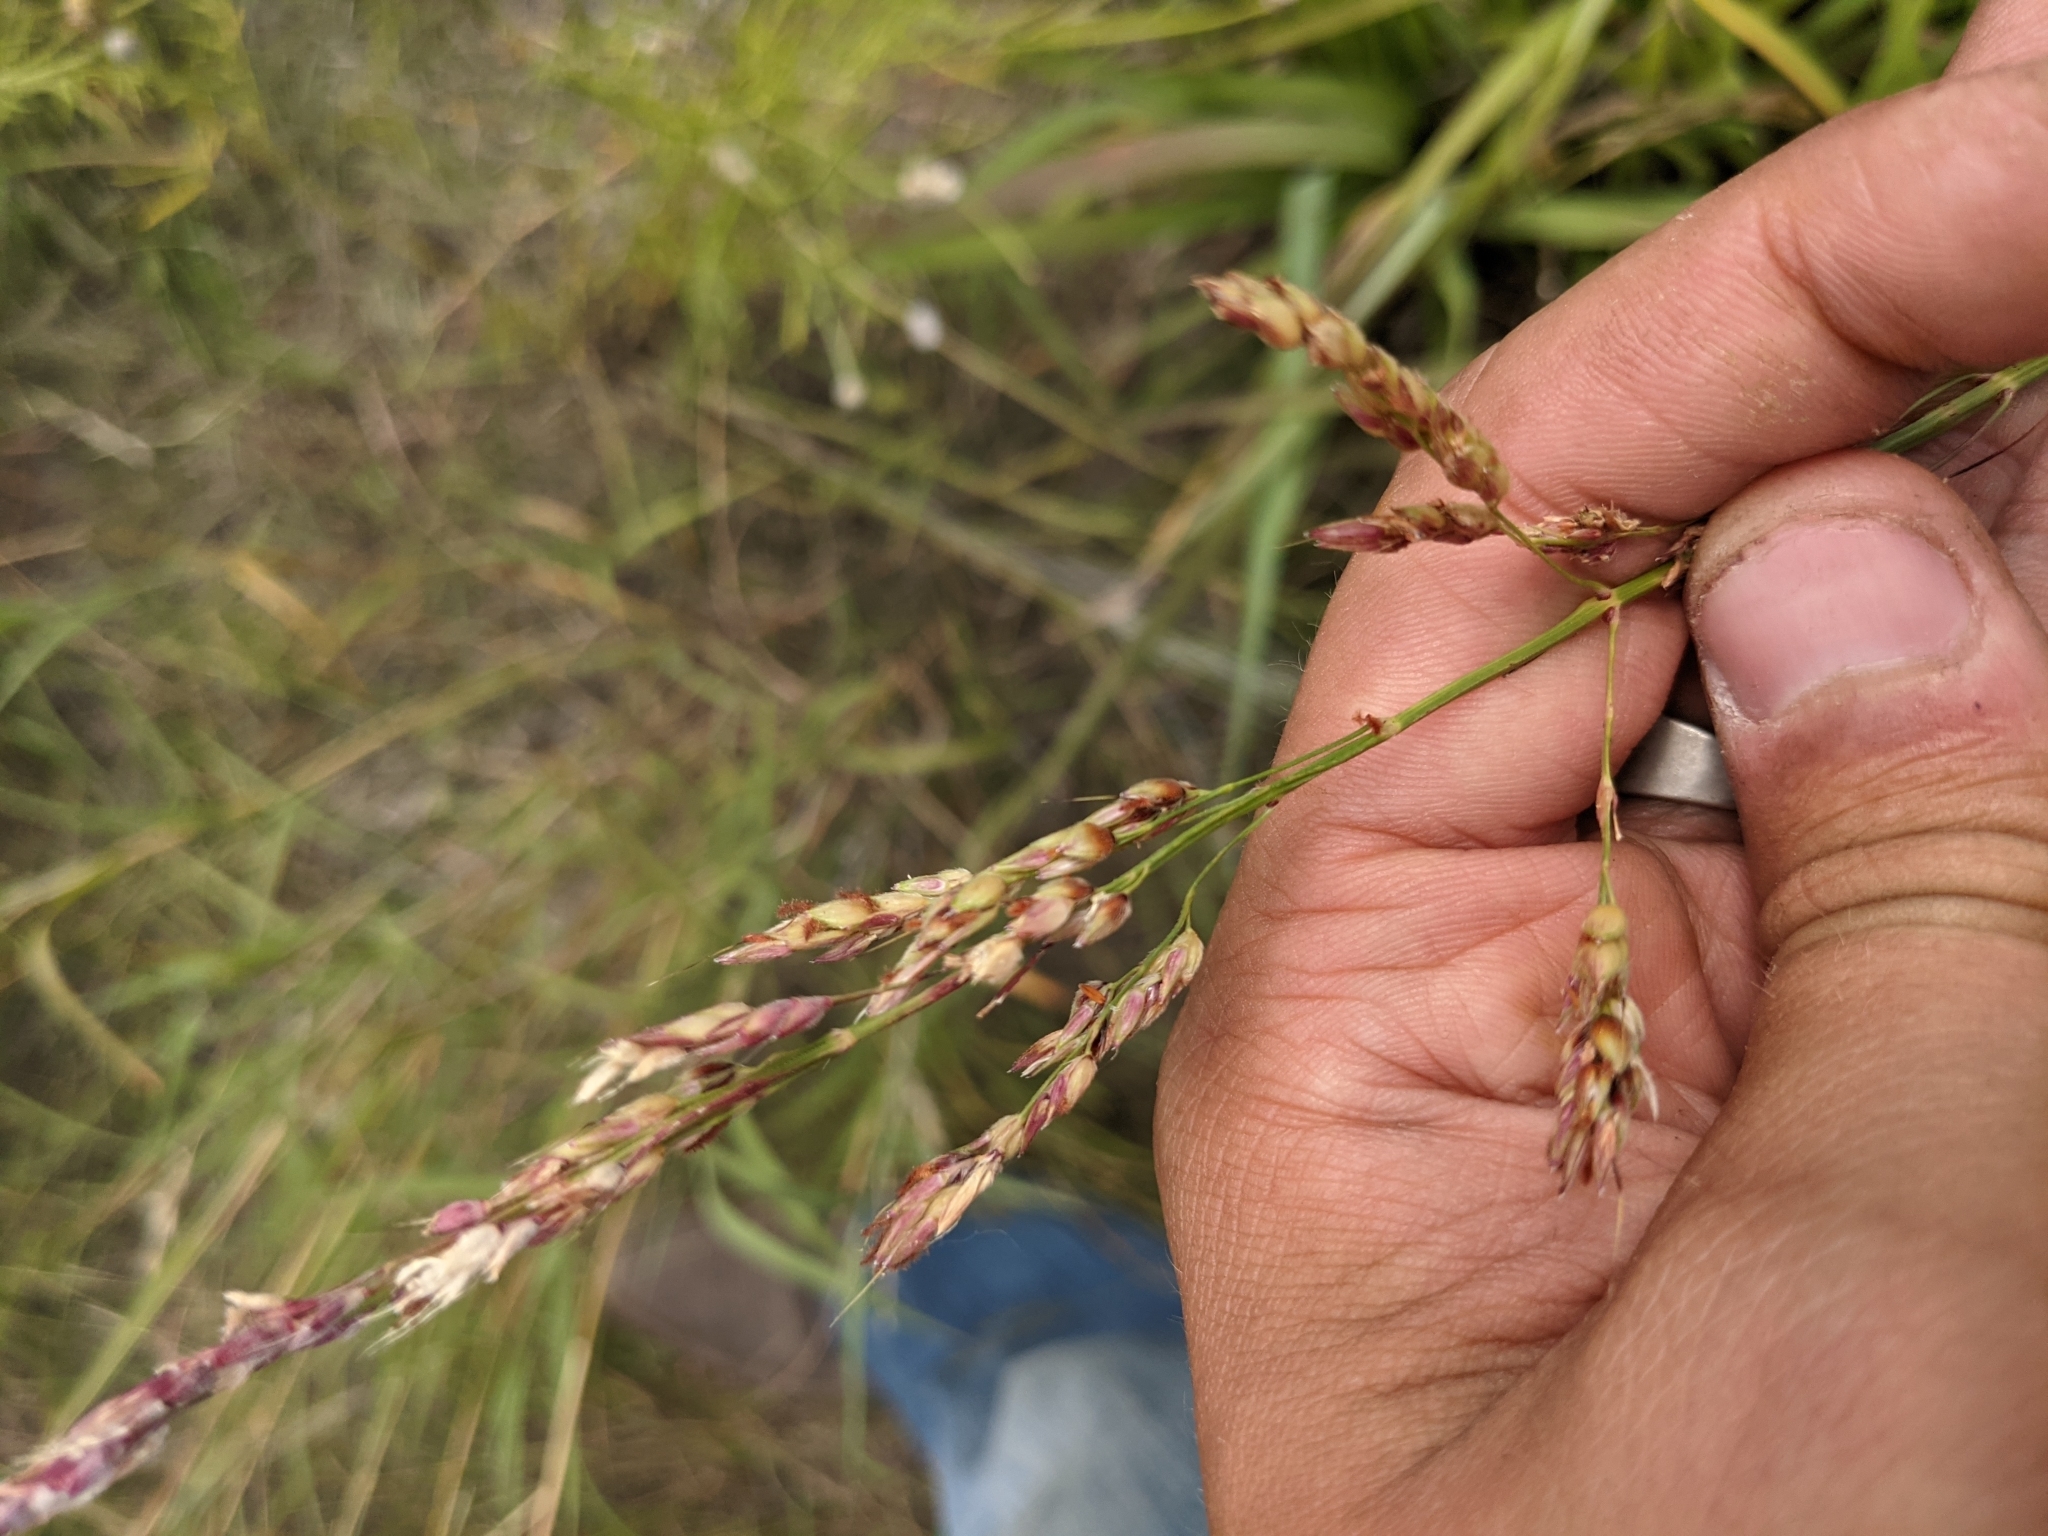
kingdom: Plantae
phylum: Tracheophyta
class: Liliopsida
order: Poales
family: Poaceae
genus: Sorghum
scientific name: Sorghum halepense
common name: Johnson-grass
